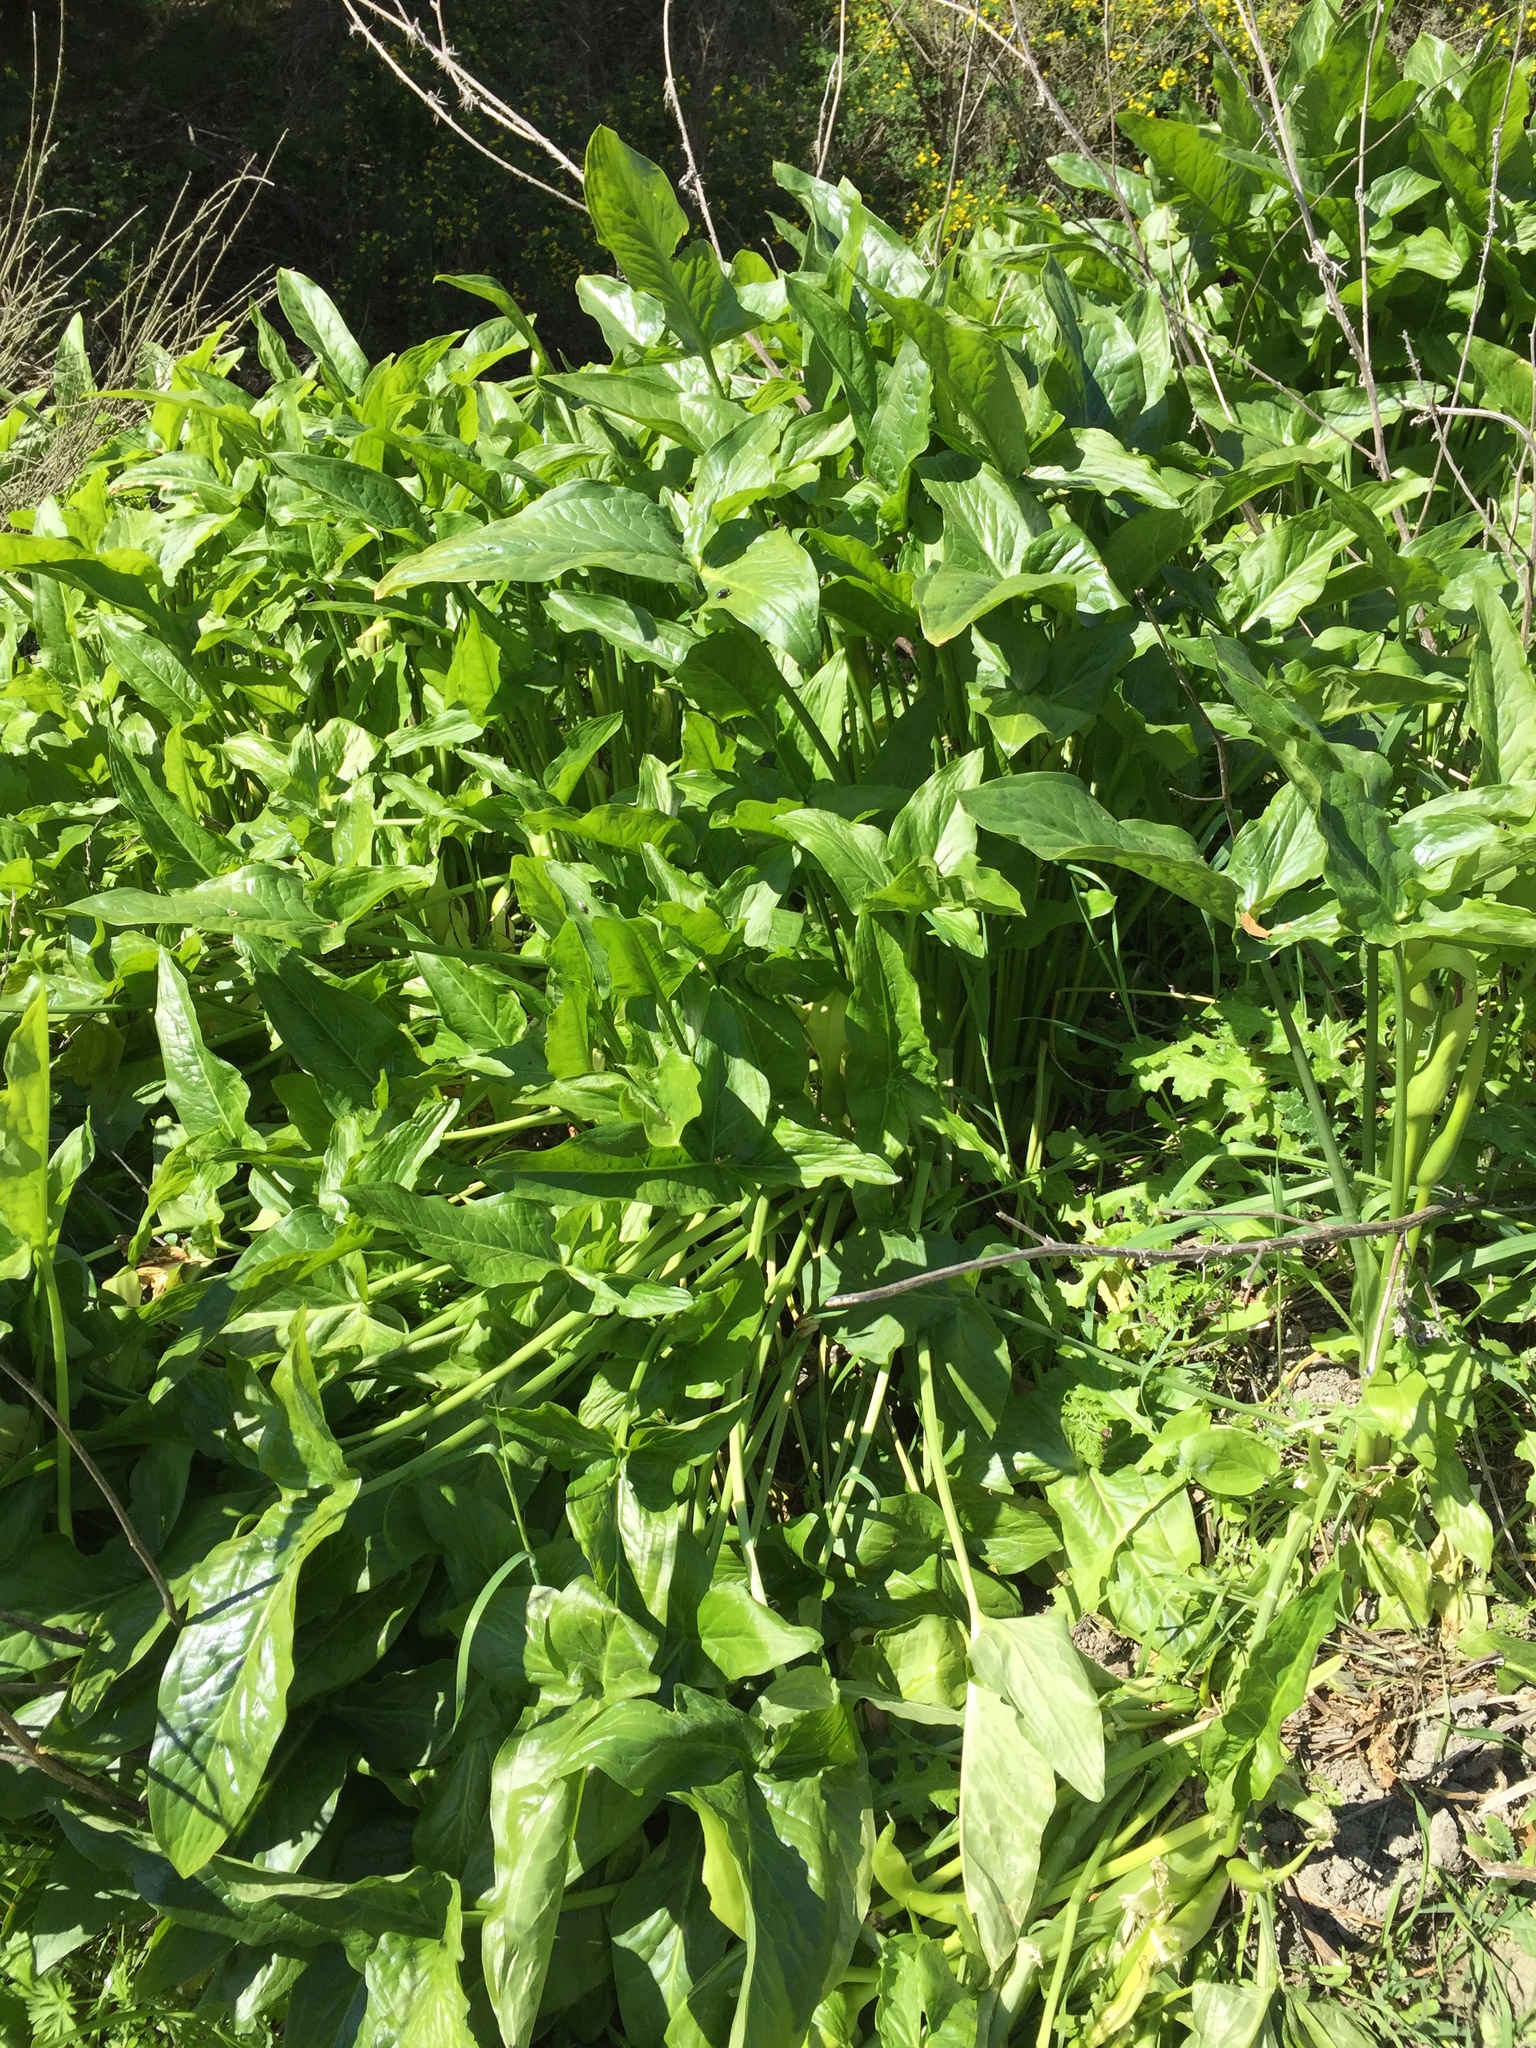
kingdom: Plantae
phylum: Tracheophyta
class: Liliopsida
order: Alismatales
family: Araceae
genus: Arum
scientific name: Arum italicum
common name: Italian lords-and-ladies
